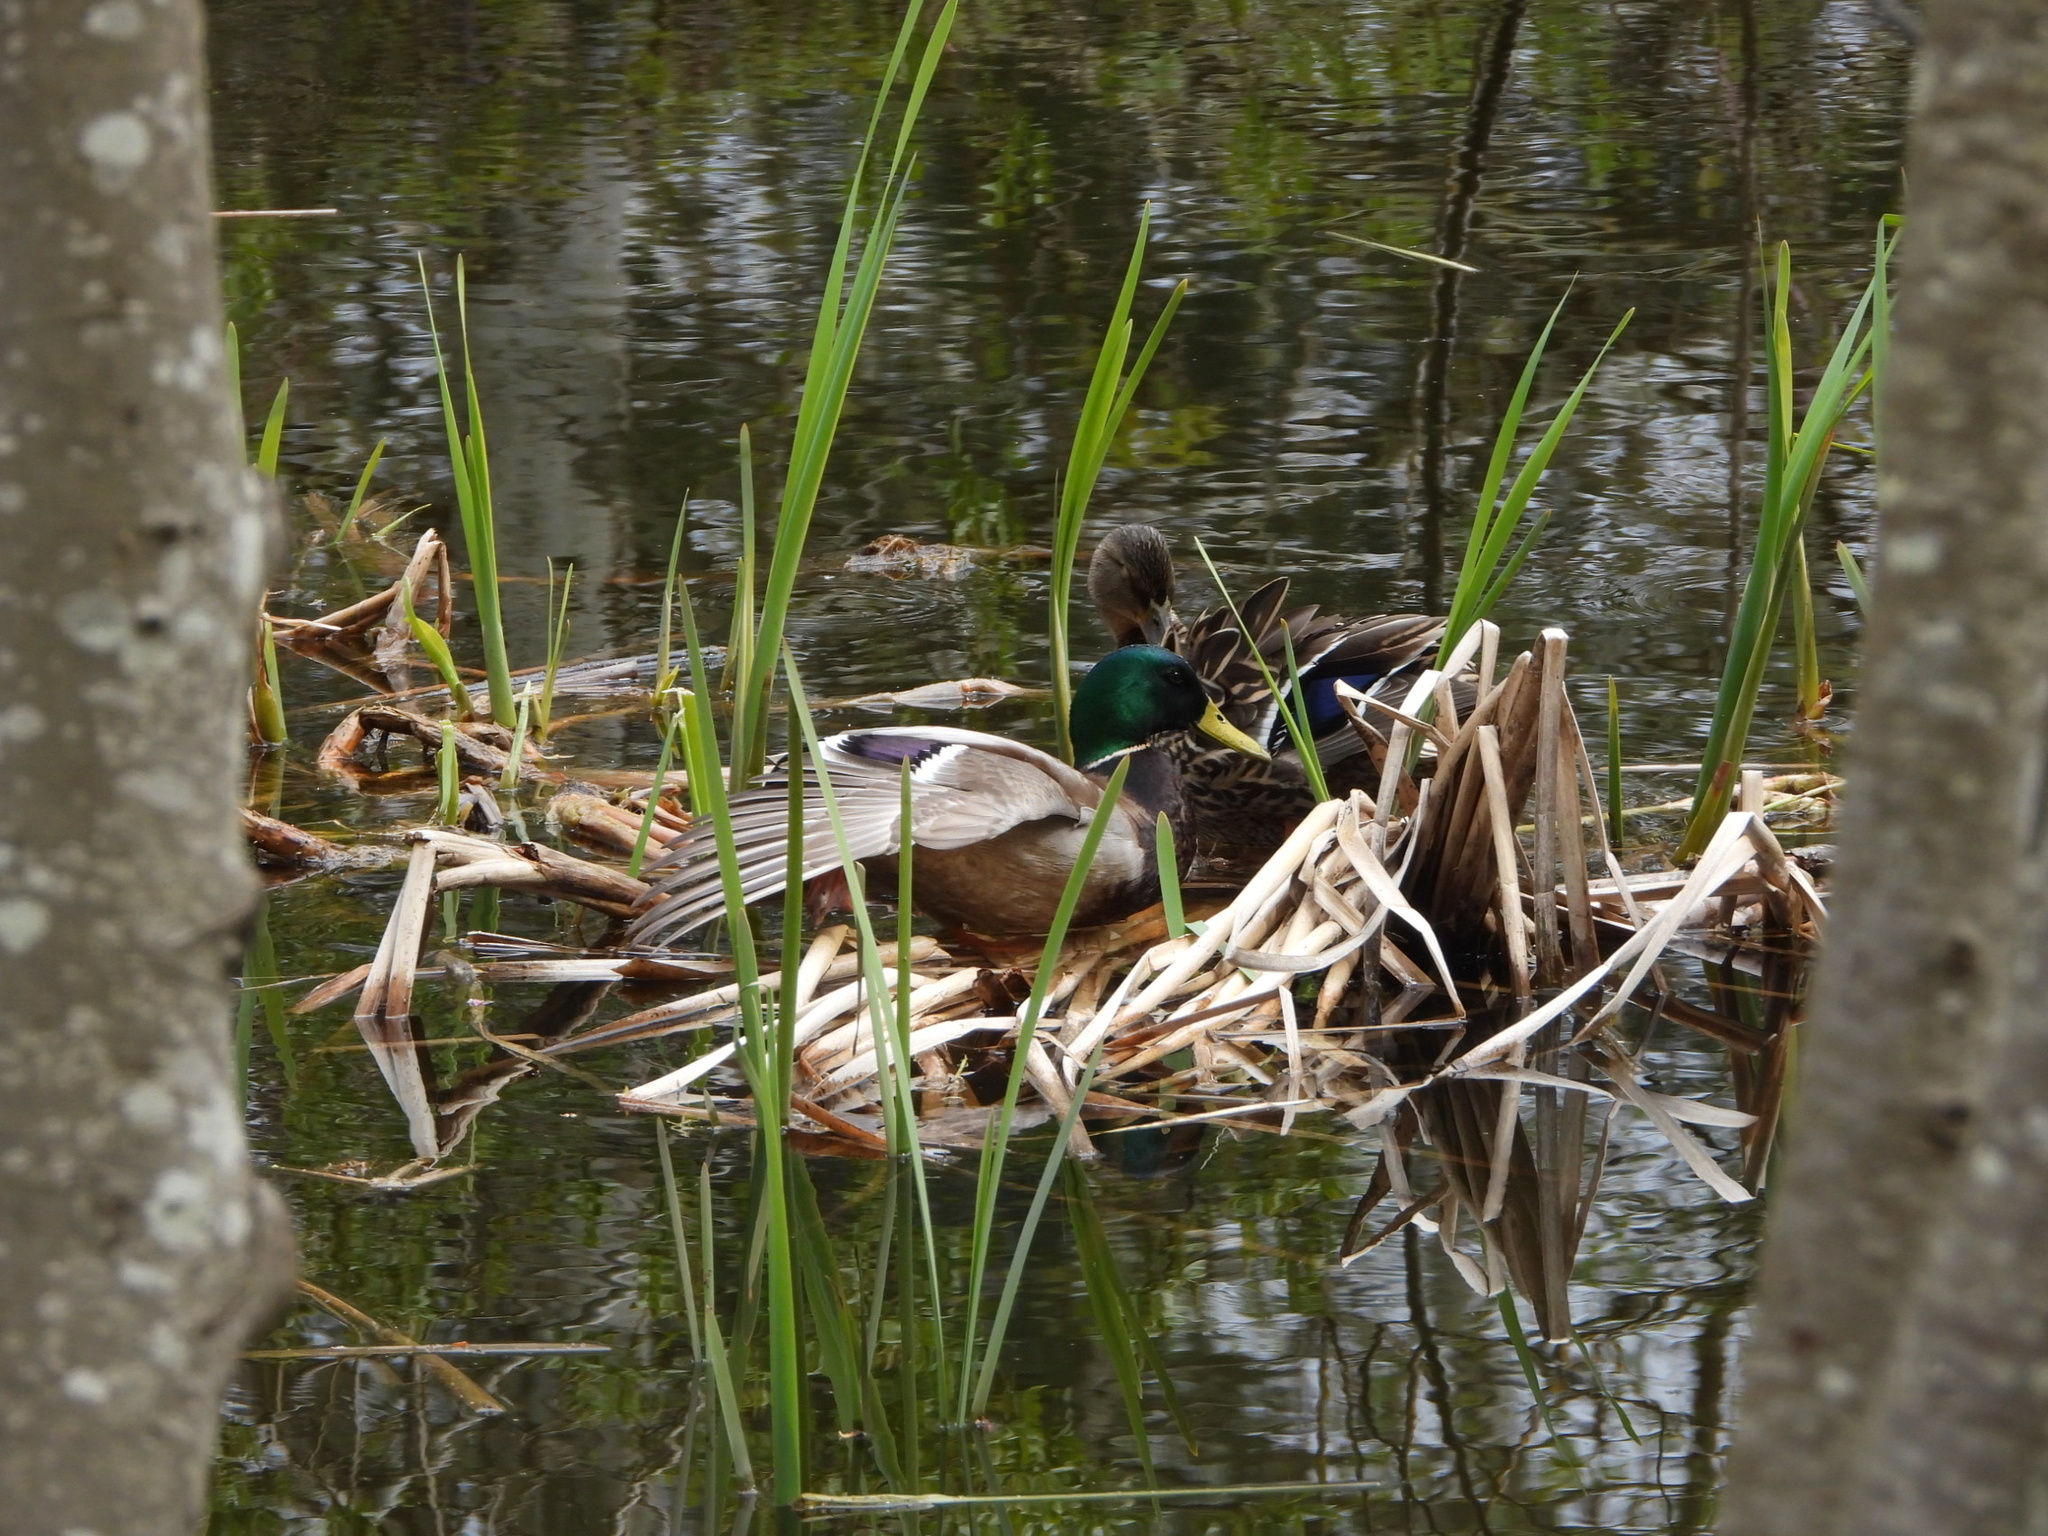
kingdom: Animalia
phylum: Chordata
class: Aves
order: Anseriformes
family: Anatidae
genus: Anas
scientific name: Anas platyrhynchos
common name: Mallard
